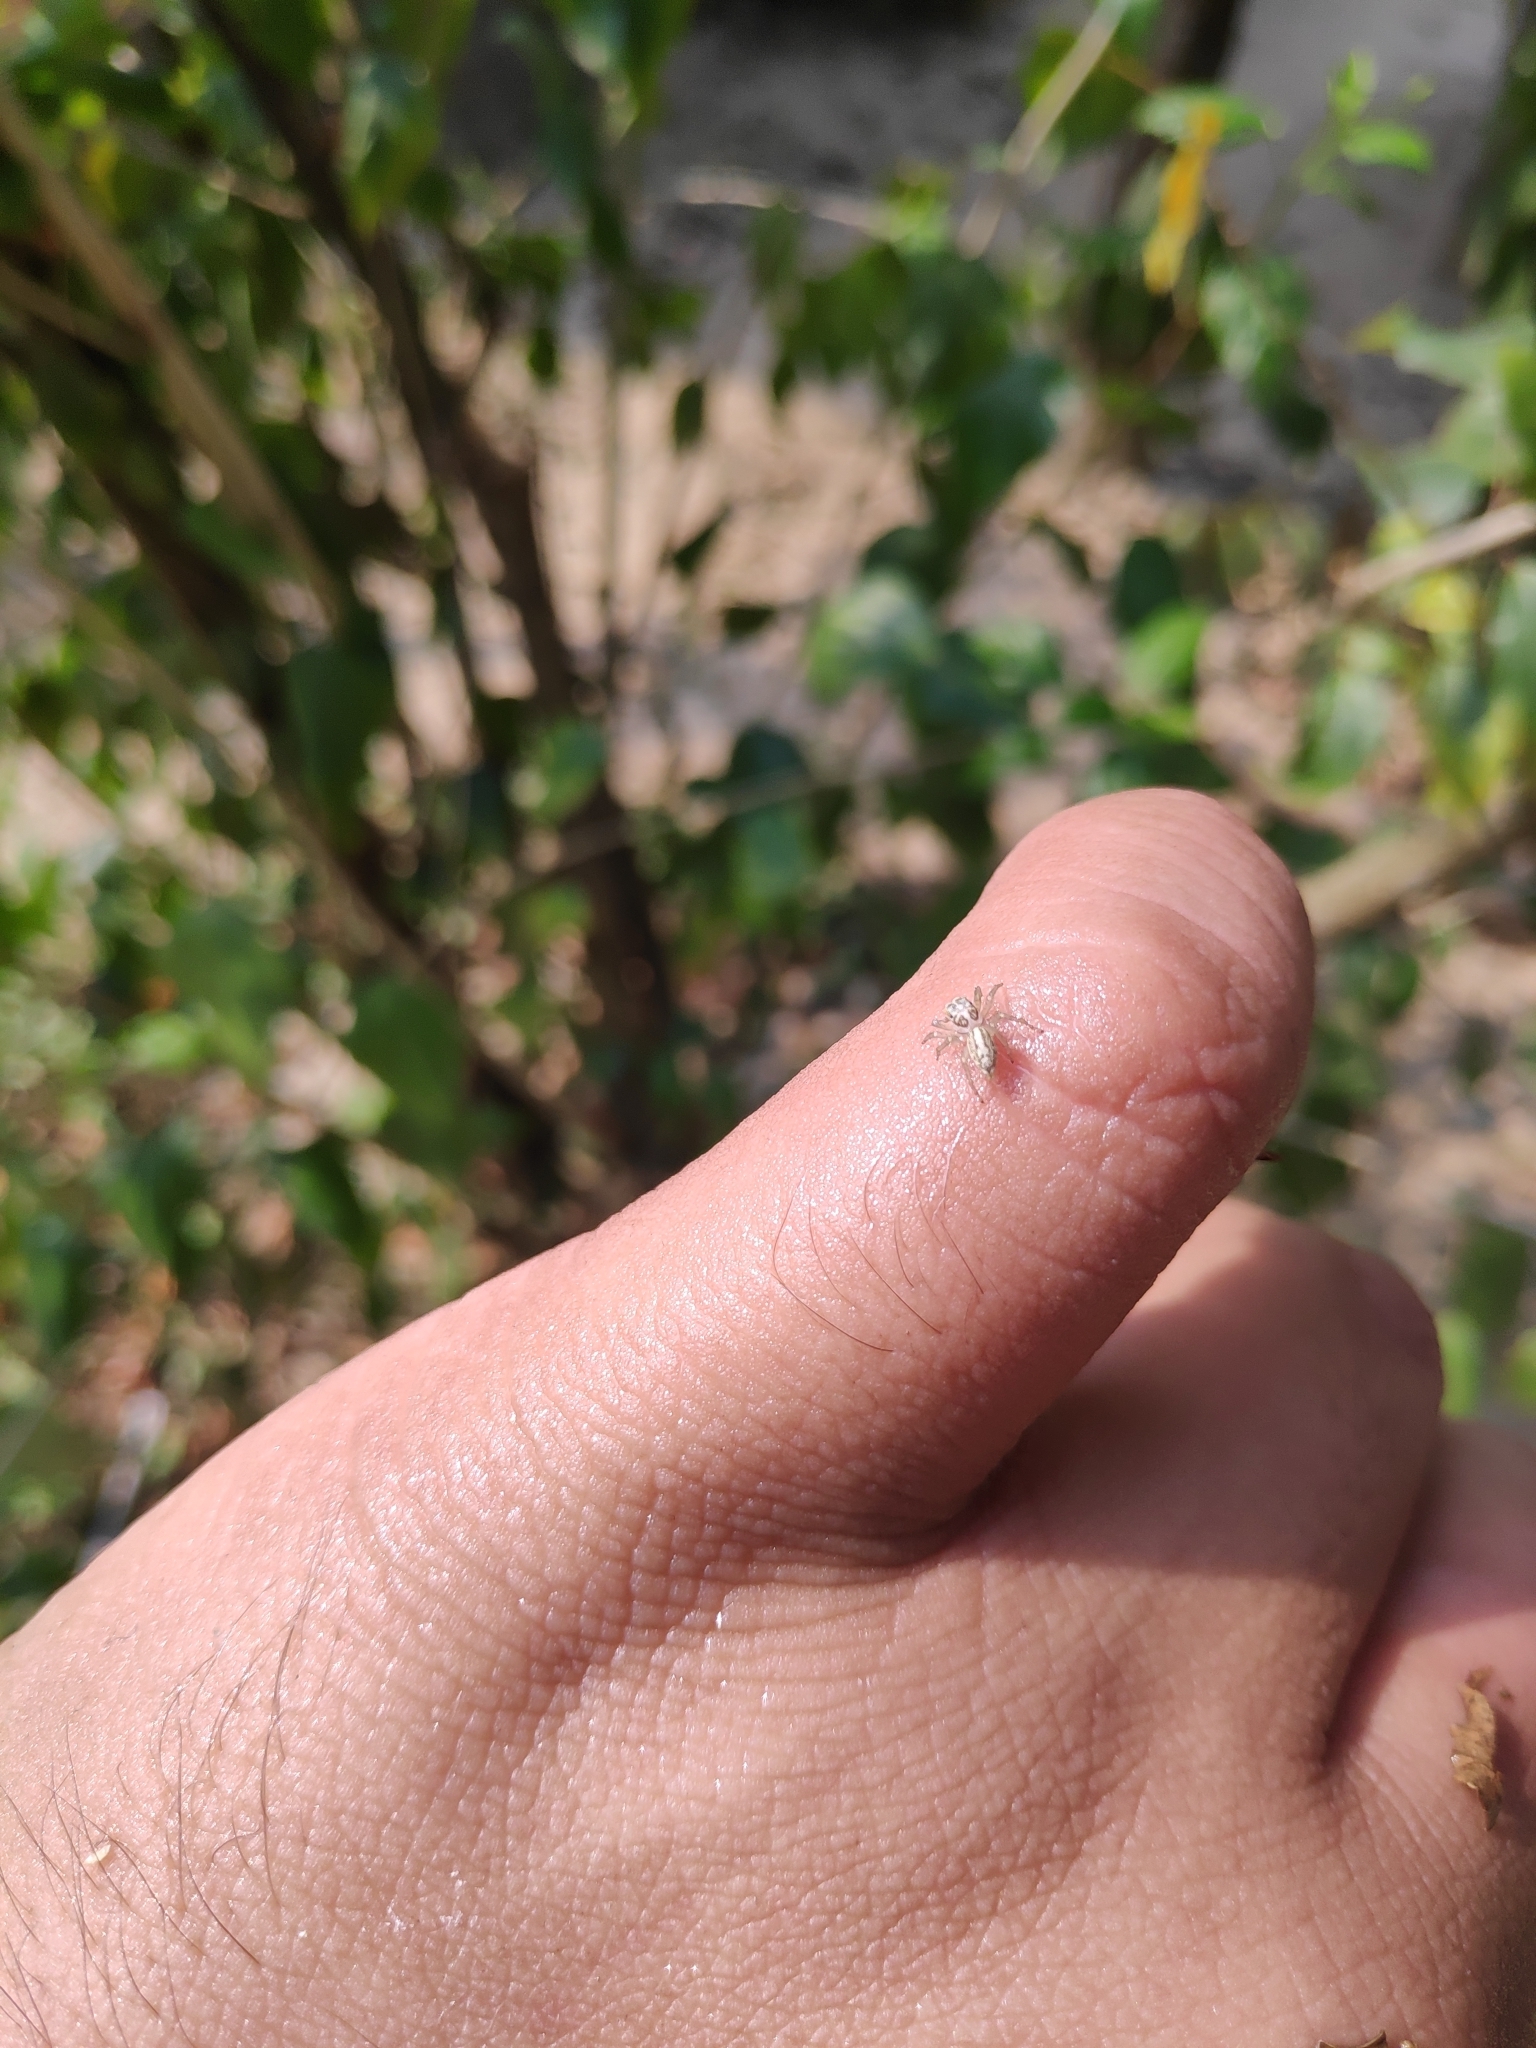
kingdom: Animalia
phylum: Arthropoda
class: Arachnida
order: Araneae
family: Salticidae
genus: Phintelloides
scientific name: Phintelloides versicolor
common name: Jumping spider
